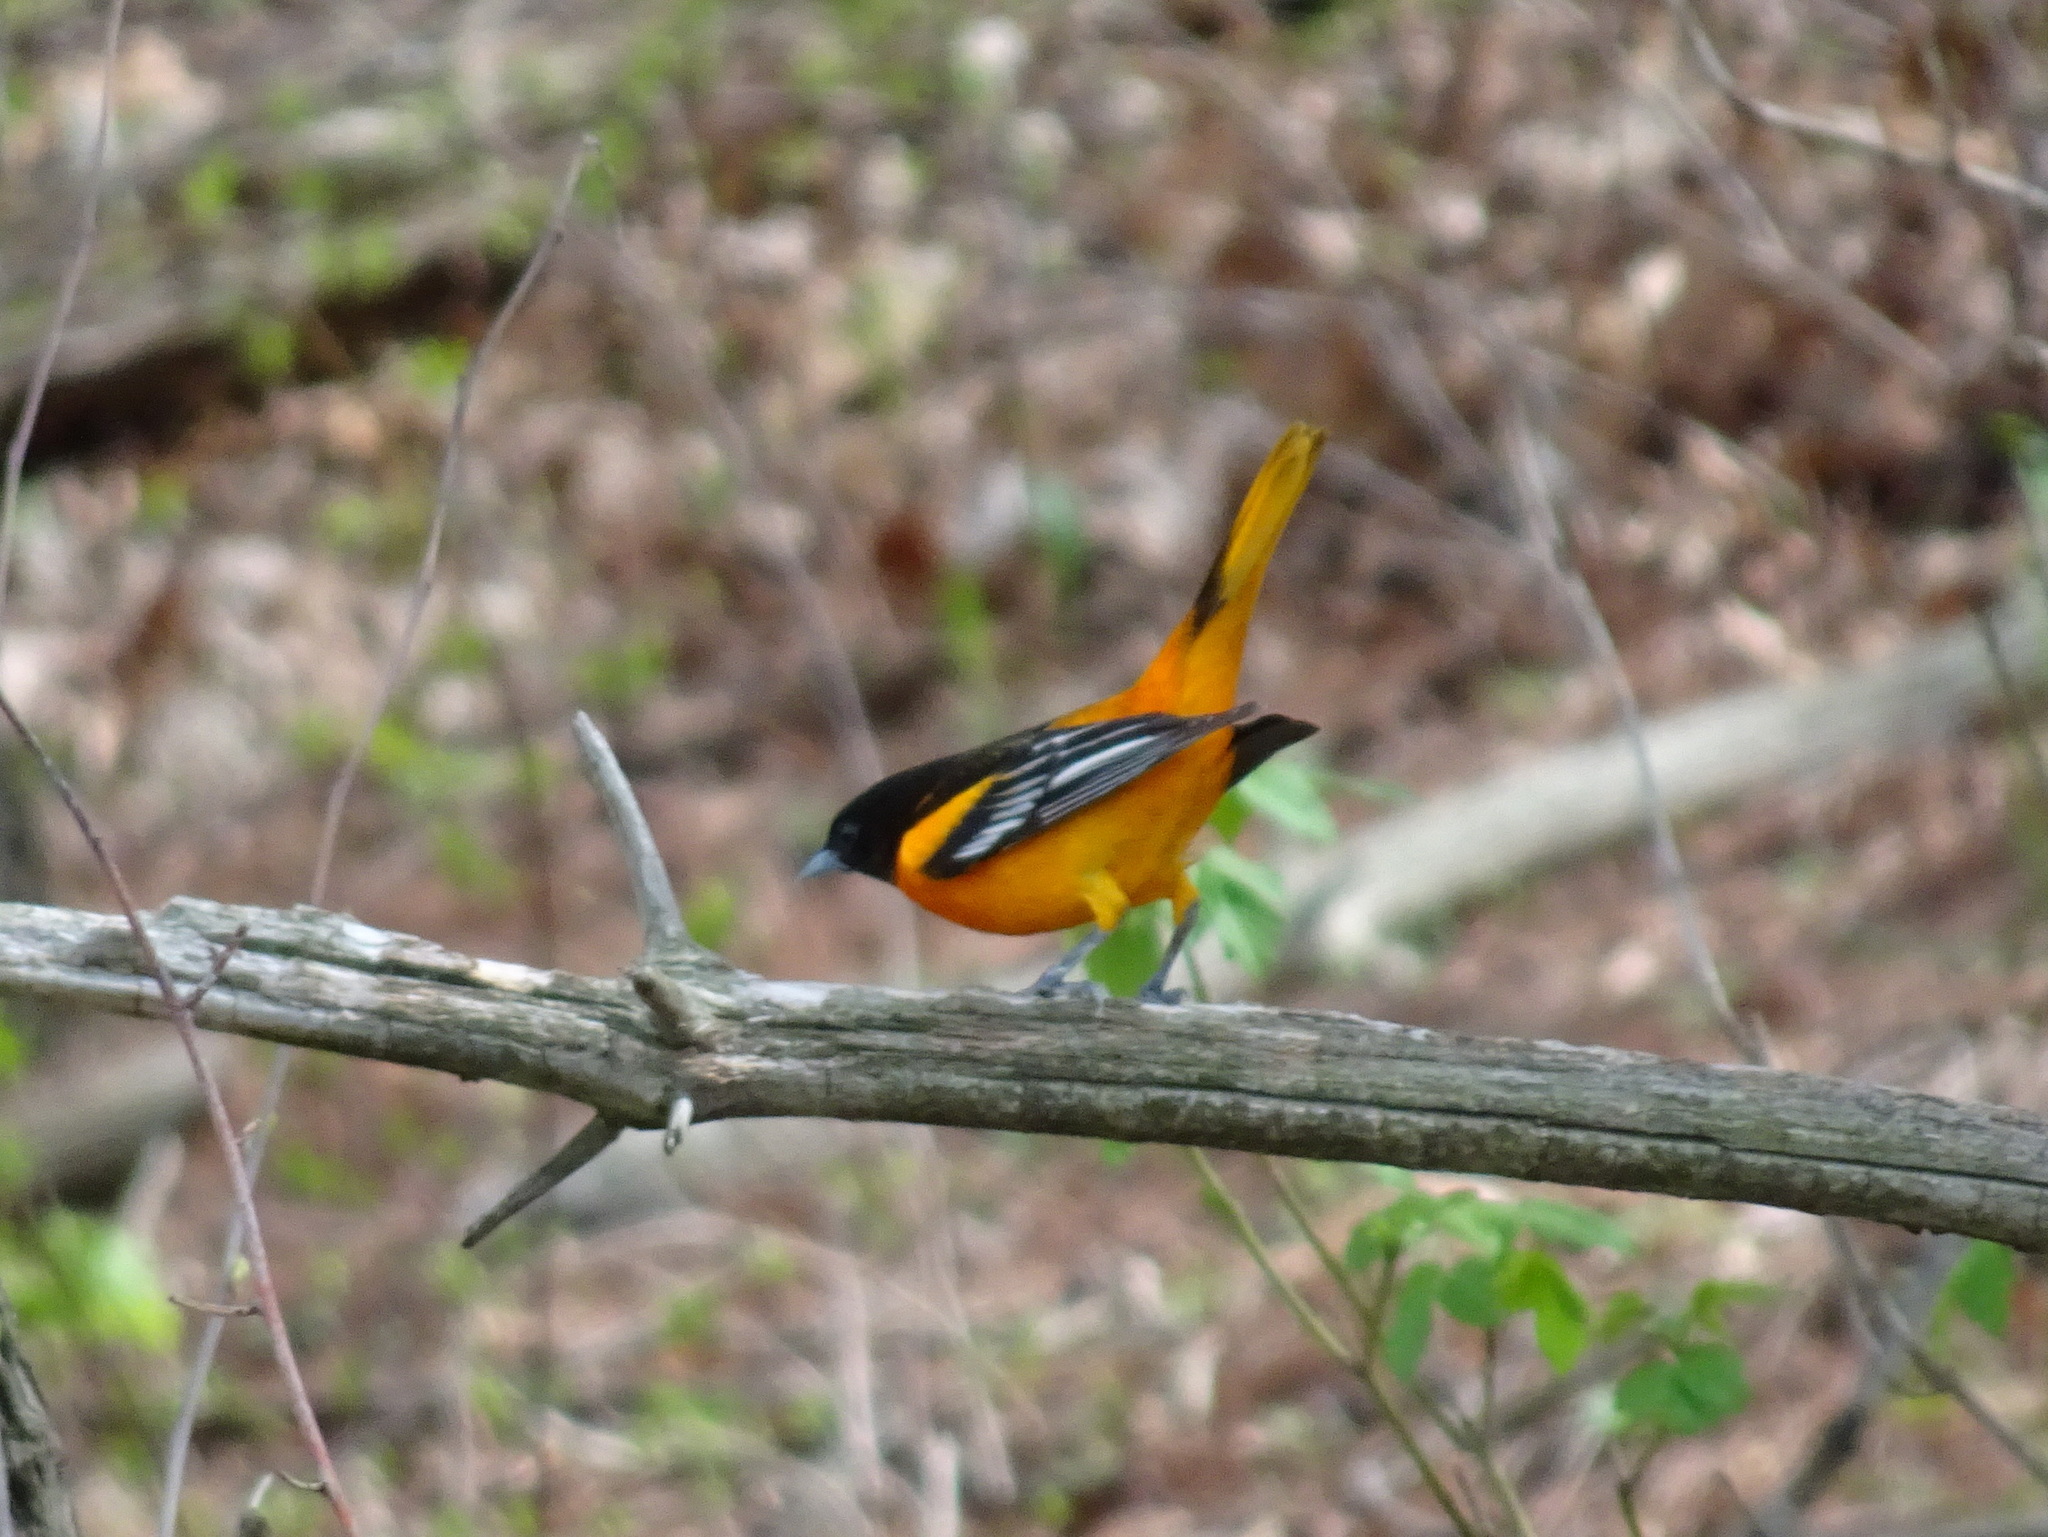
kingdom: Animalia
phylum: Chordata
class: Aves
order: Passeriformes
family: Icteridae
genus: Icterus
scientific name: Icterus galbula
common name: Baltimore oriole
